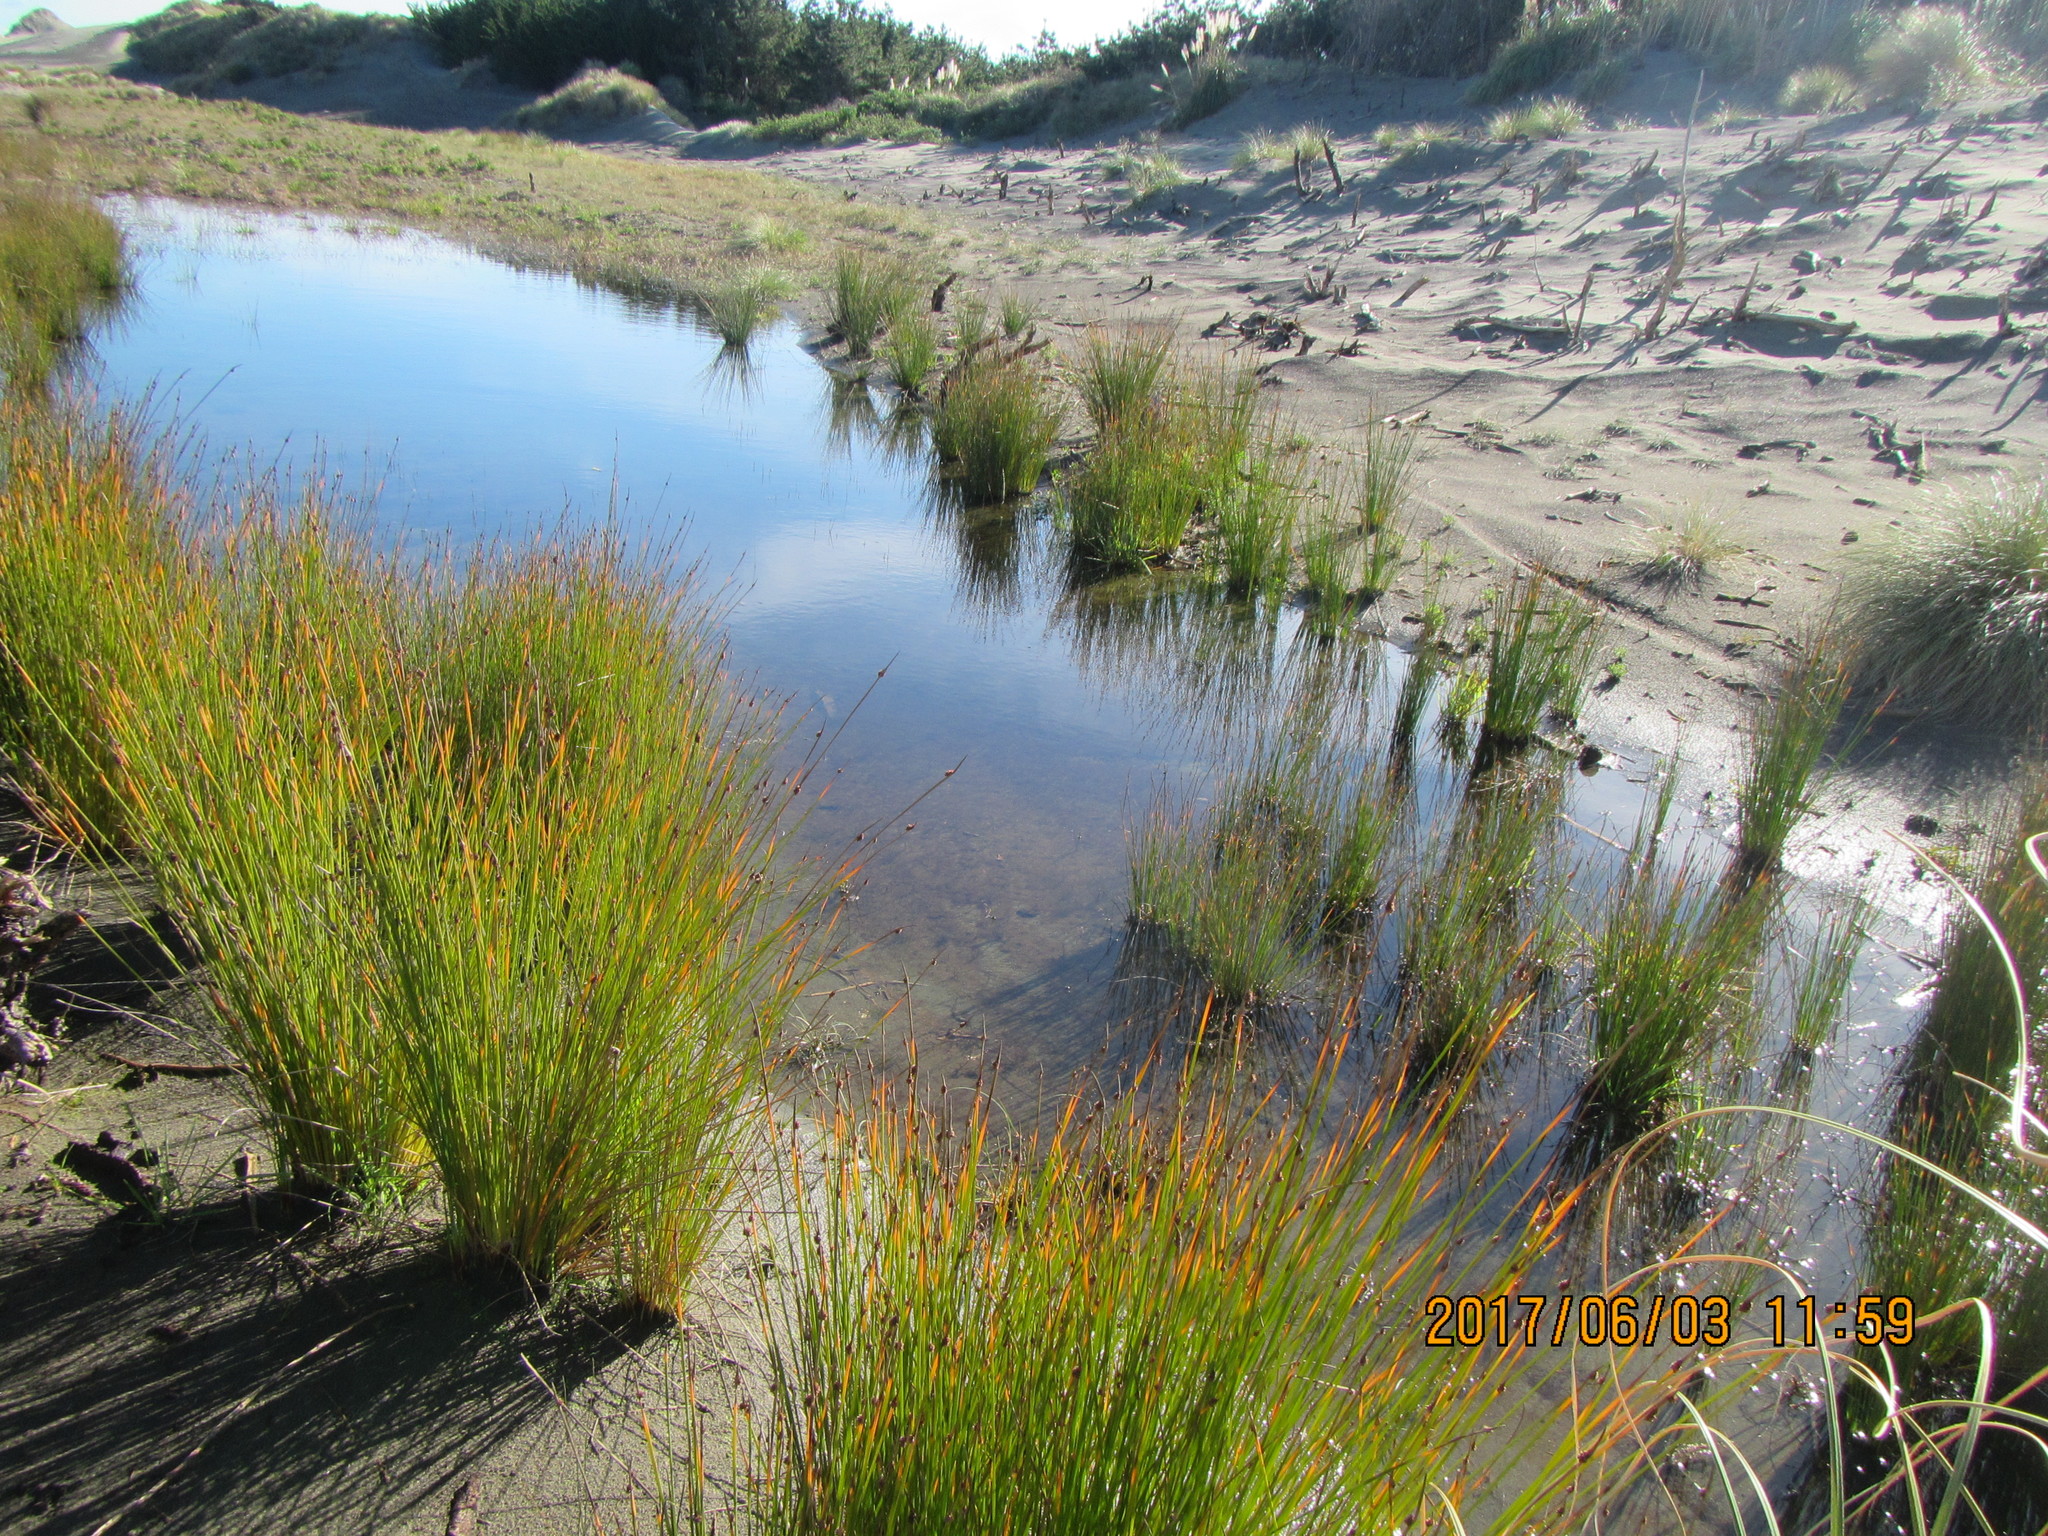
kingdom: Plantae
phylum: Tracheophyta
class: Liliopsida
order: Poales
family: Cyperaceae
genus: Ficinia
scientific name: Ficinia nodosa
